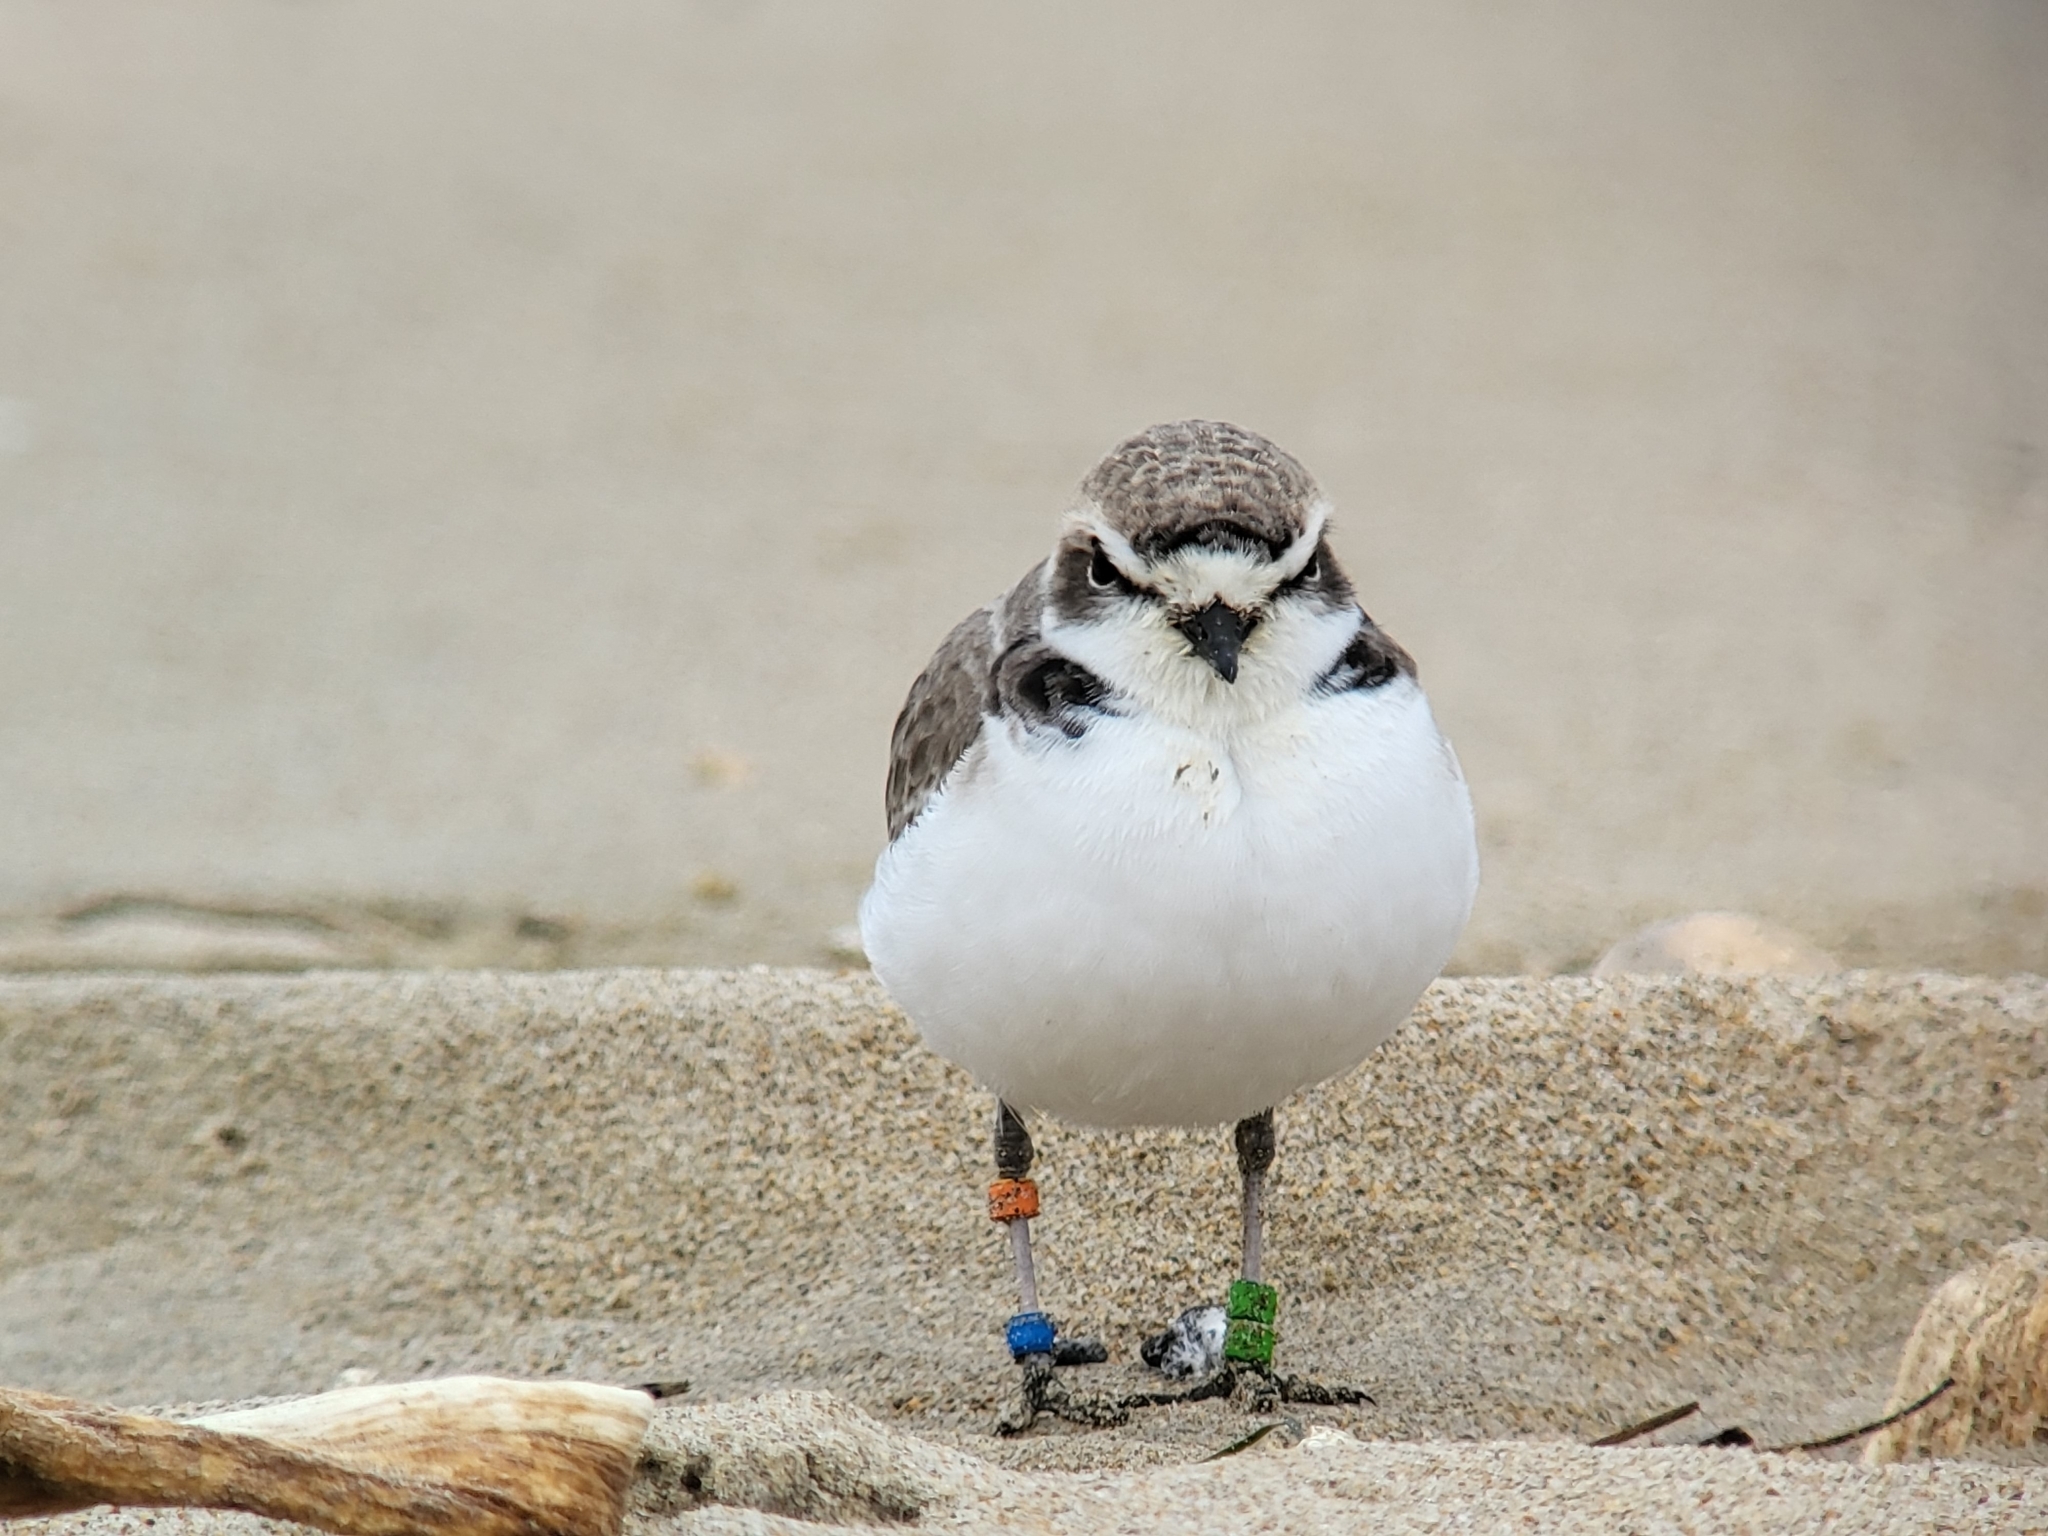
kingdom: Animalia
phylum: Chordata
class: Aves
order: Charadriiformes
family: Charadriidae
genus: Anarhynchus
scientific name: Anarhynchus
